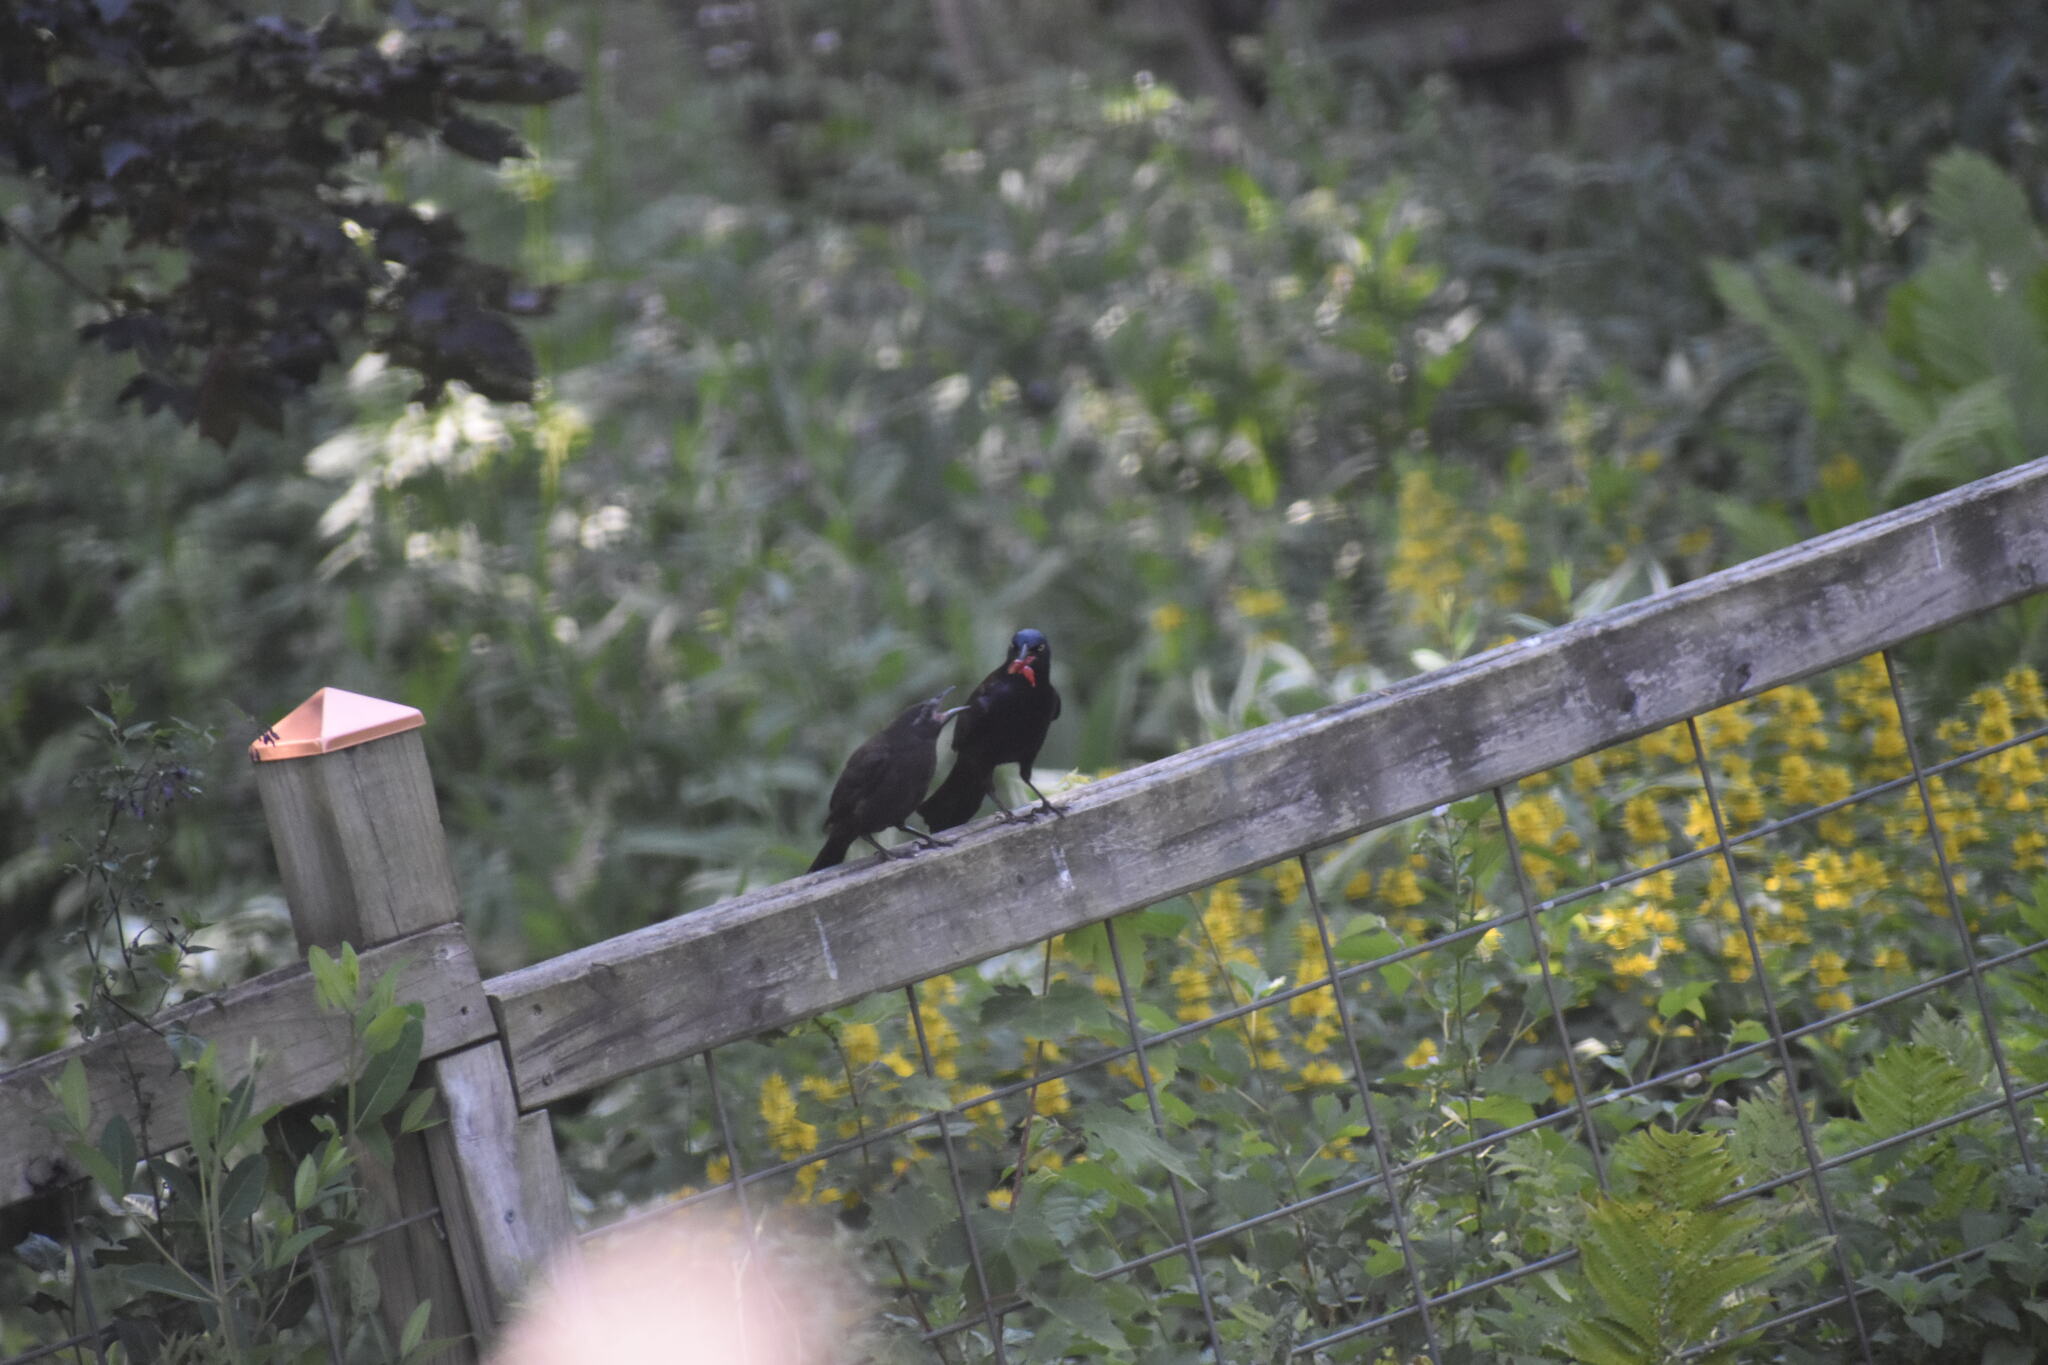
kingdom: Animalia
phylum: Chordata
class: Aves
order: Passeriformes
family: Icteridae
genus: Quiscalus
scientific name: Quiscalus quiscula
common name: Common grackle
